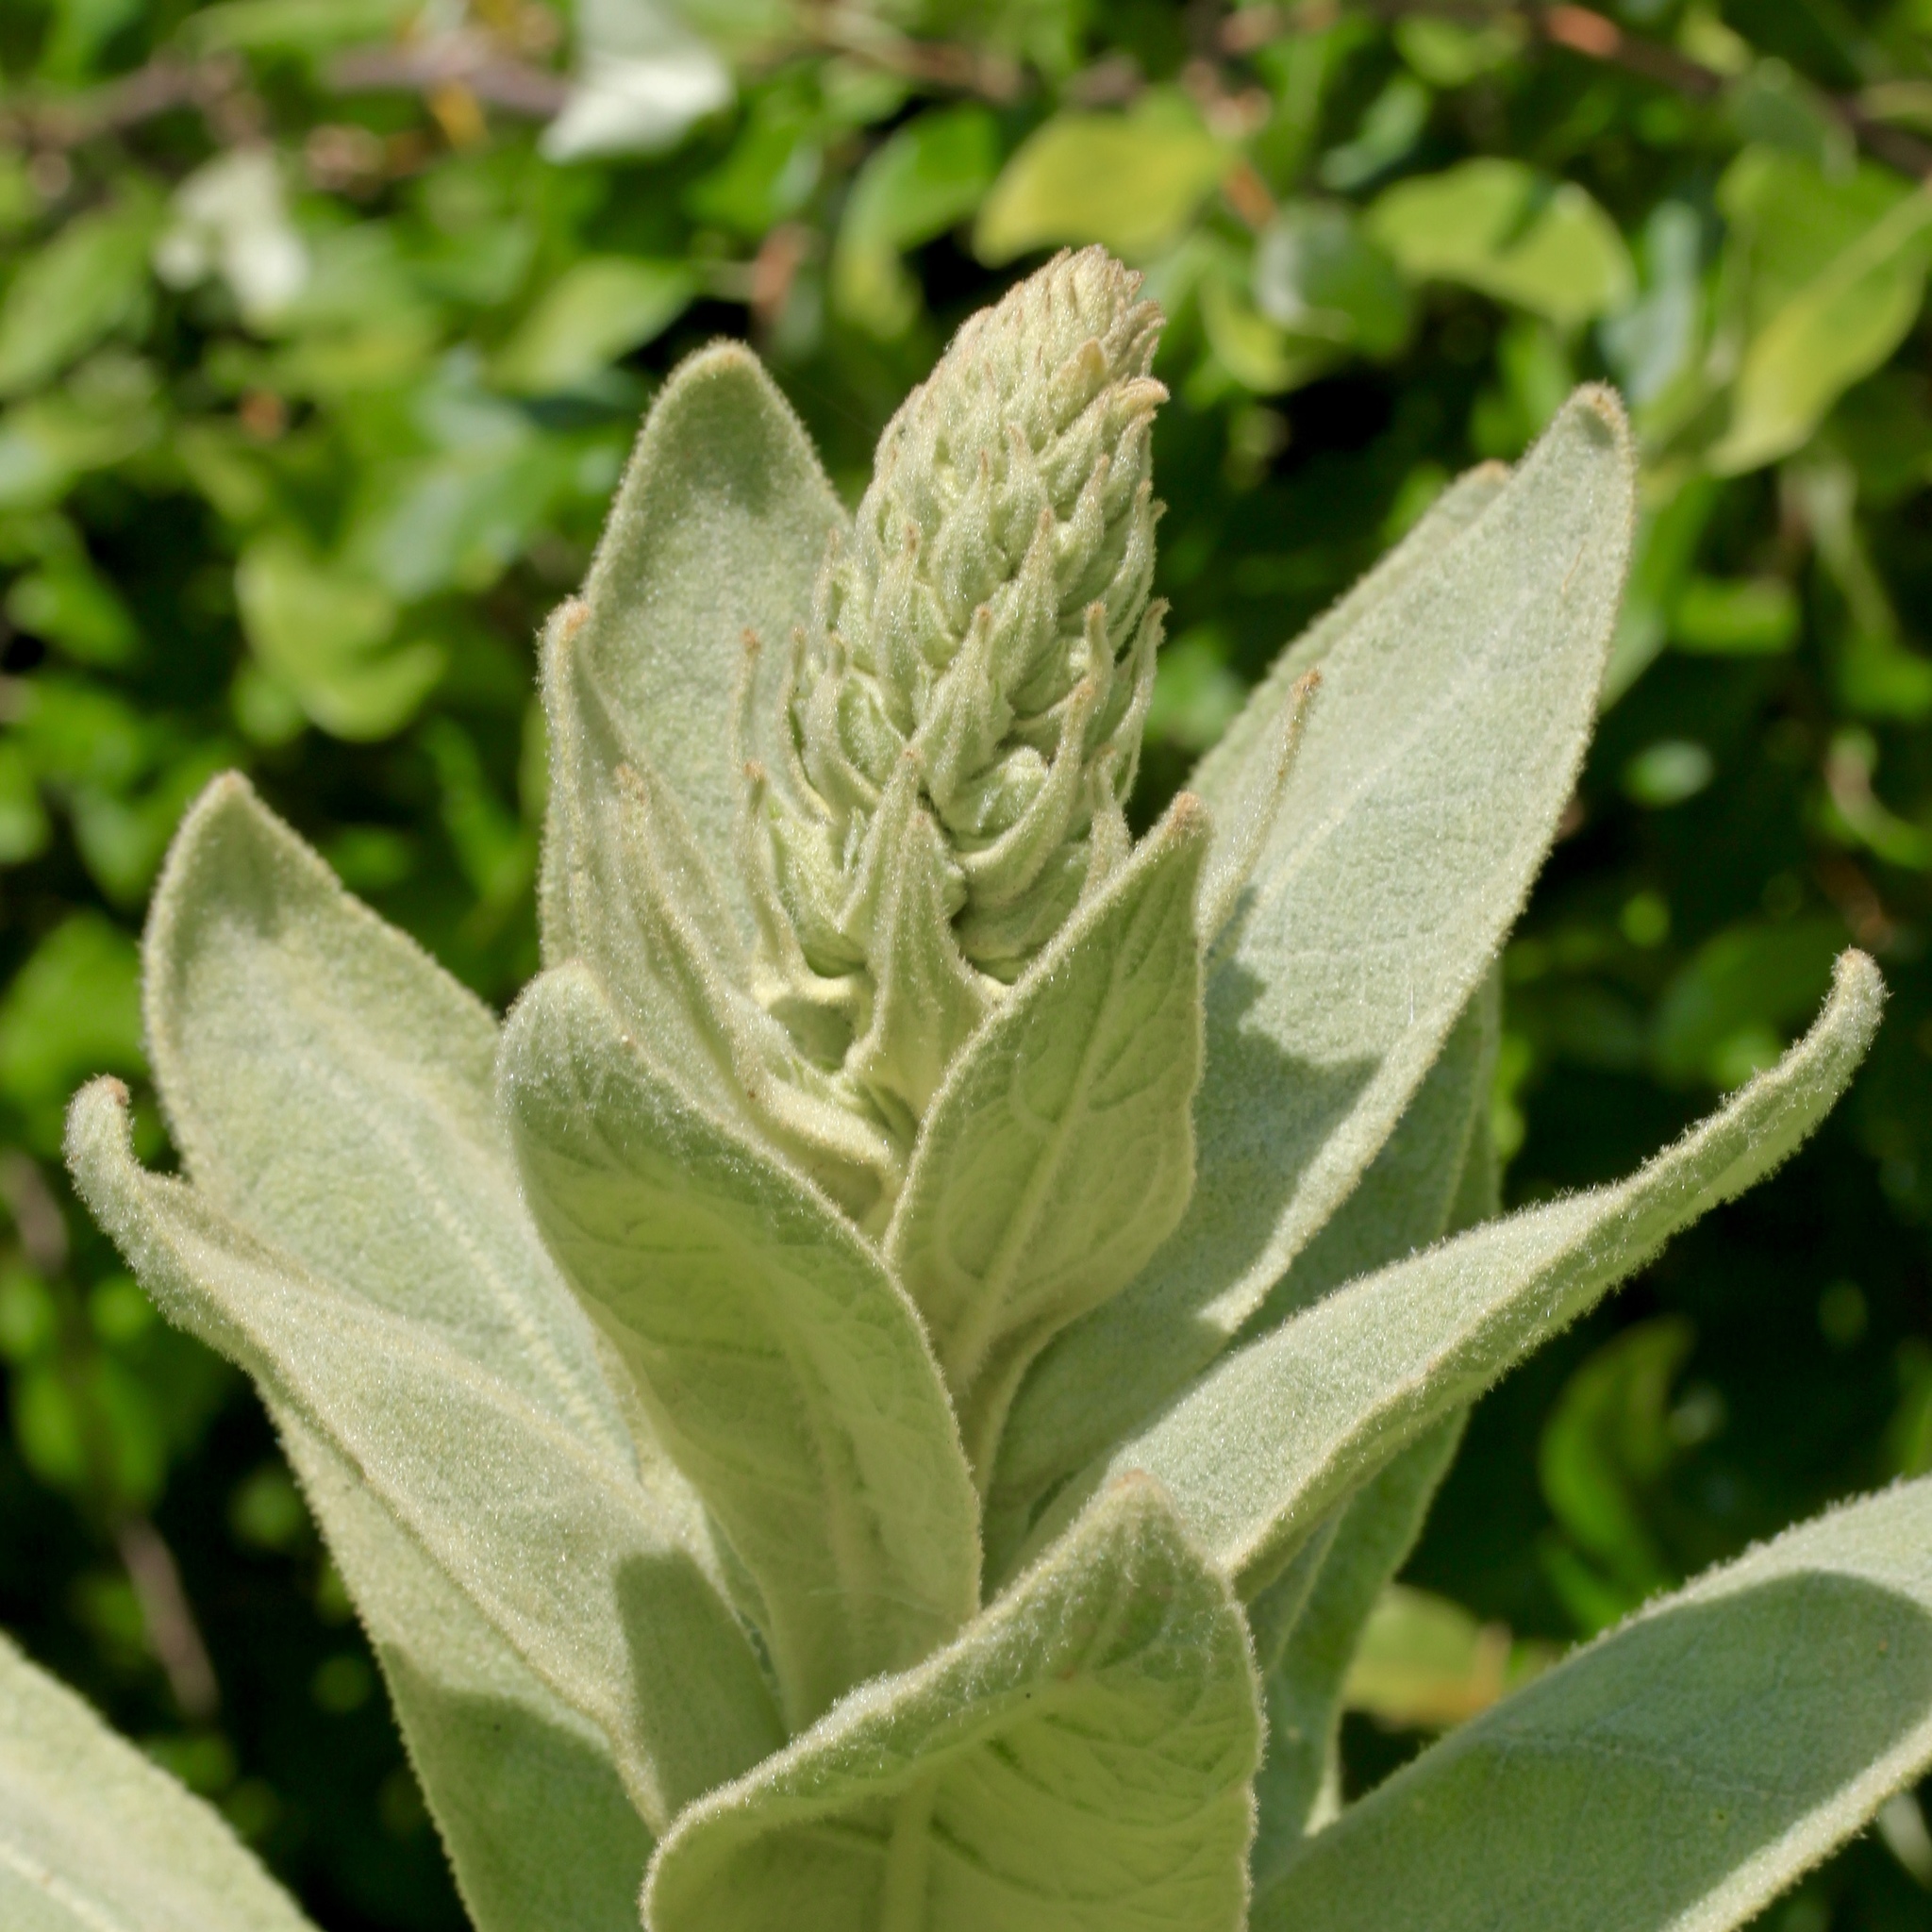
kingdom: Plantae
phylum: Tracheophyta
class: Magnoliopsida
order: Lamiales
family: Scrophulariaceae
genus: Verbascum
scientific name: Verbascum thapsus
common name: Common mullein
